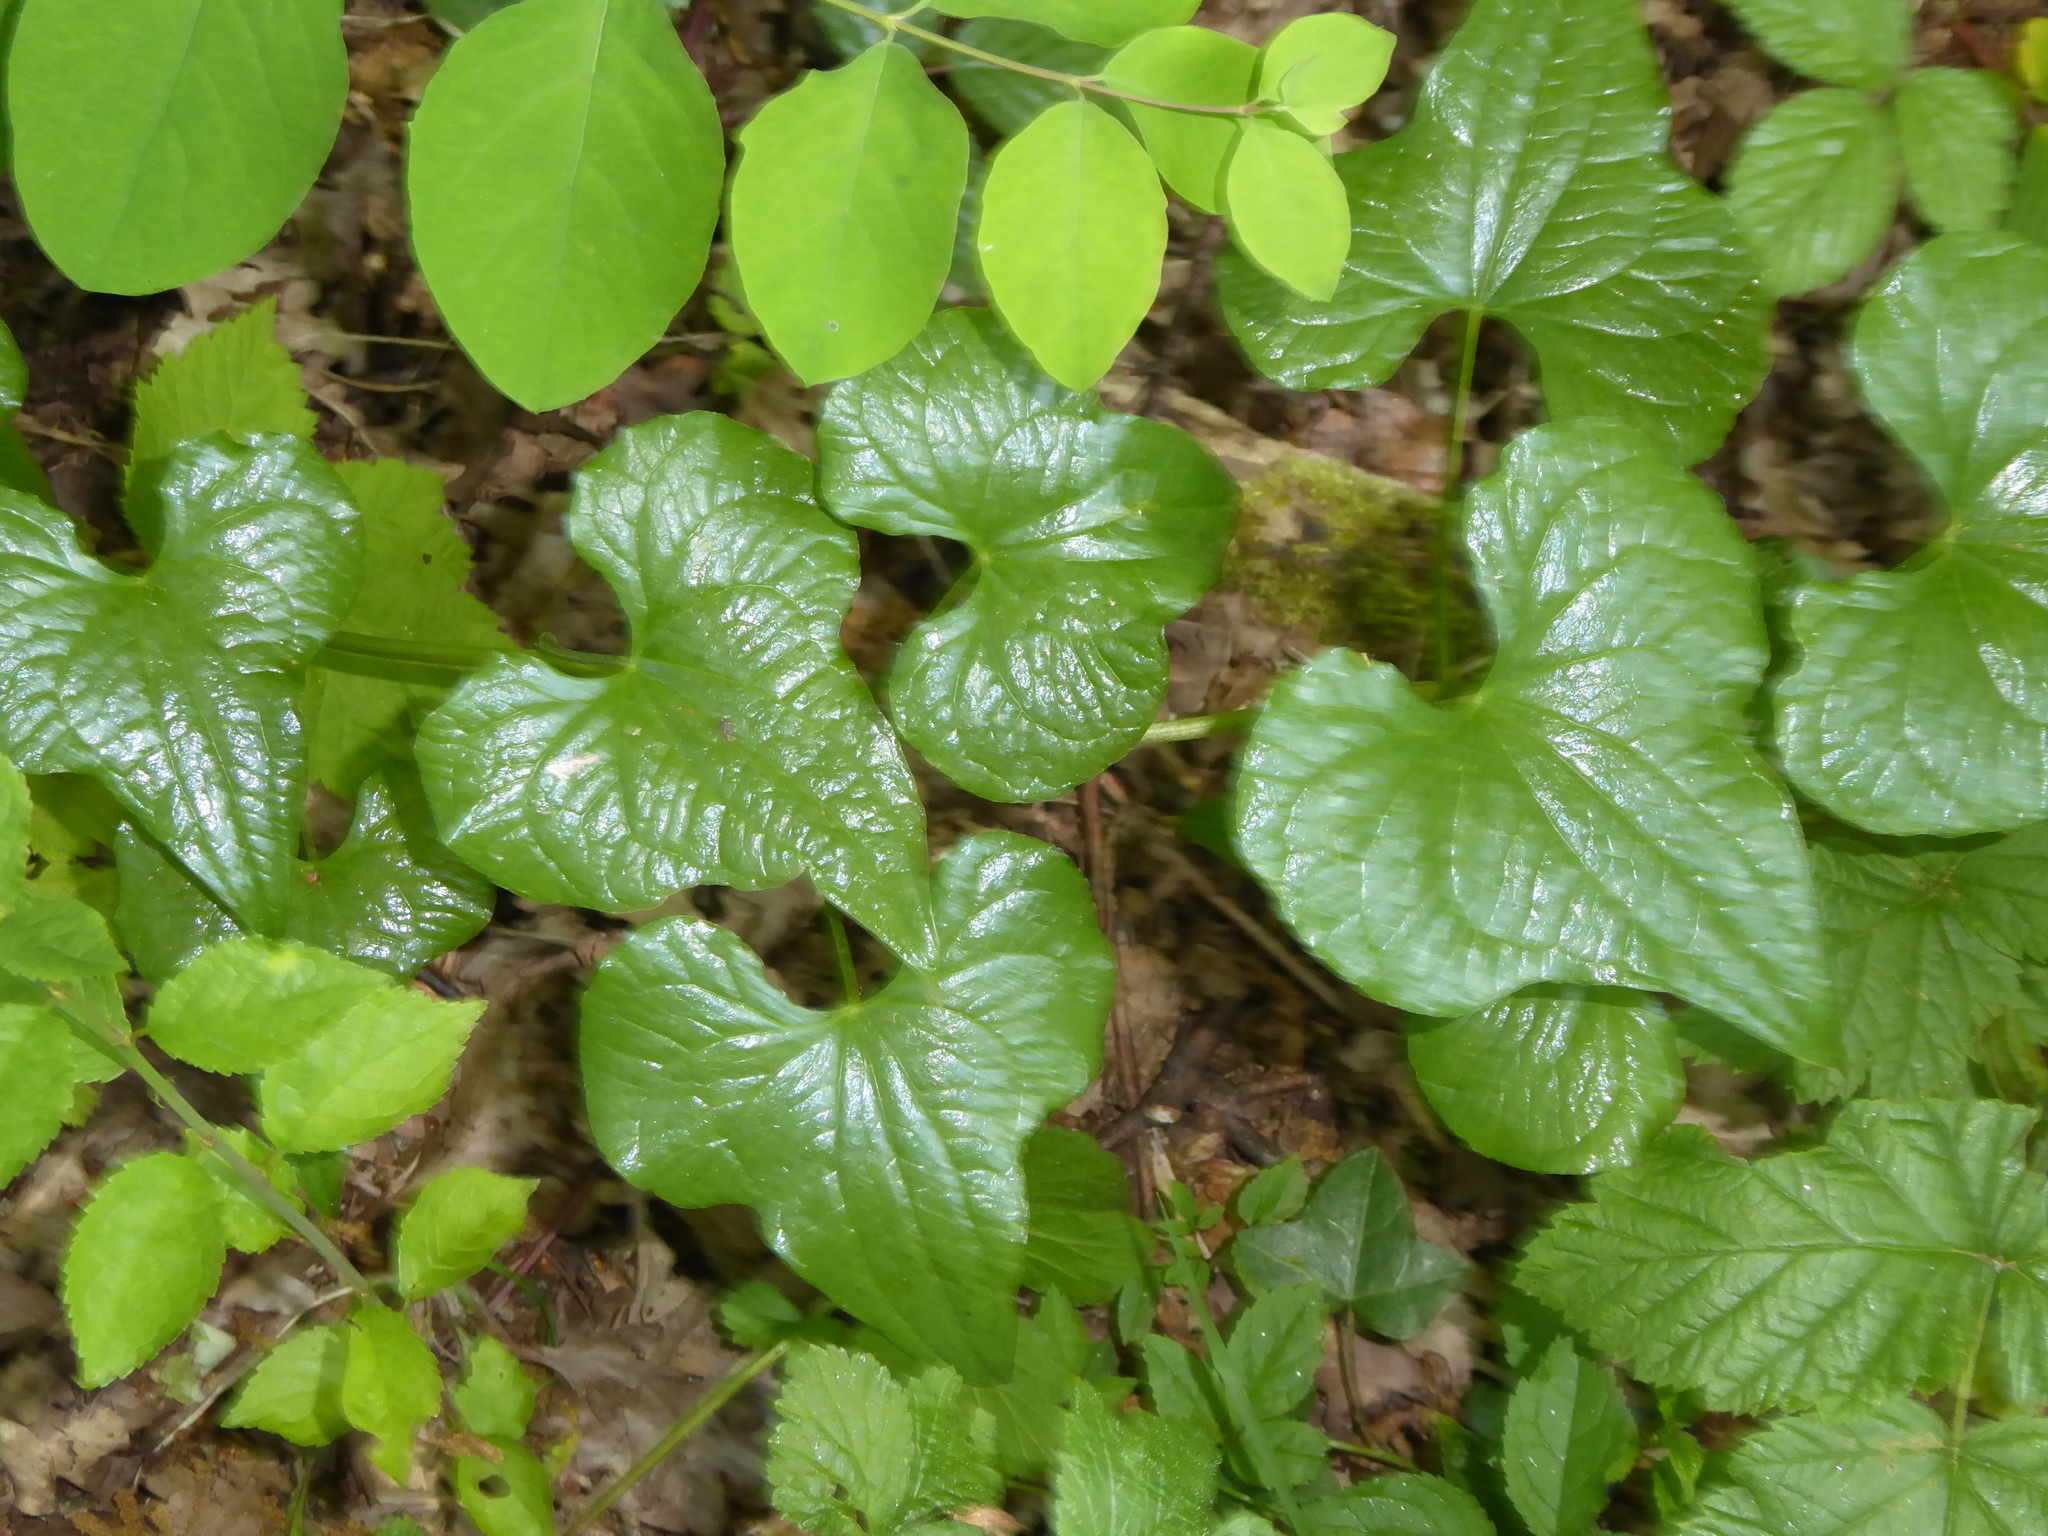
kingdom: Plantae
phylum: Tracheophyta
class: Liliopsida
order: Dioscoreales
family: Dioscoreaceae
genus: Dioscorea
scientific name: Dioscorea communis
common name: Black-bindweed
